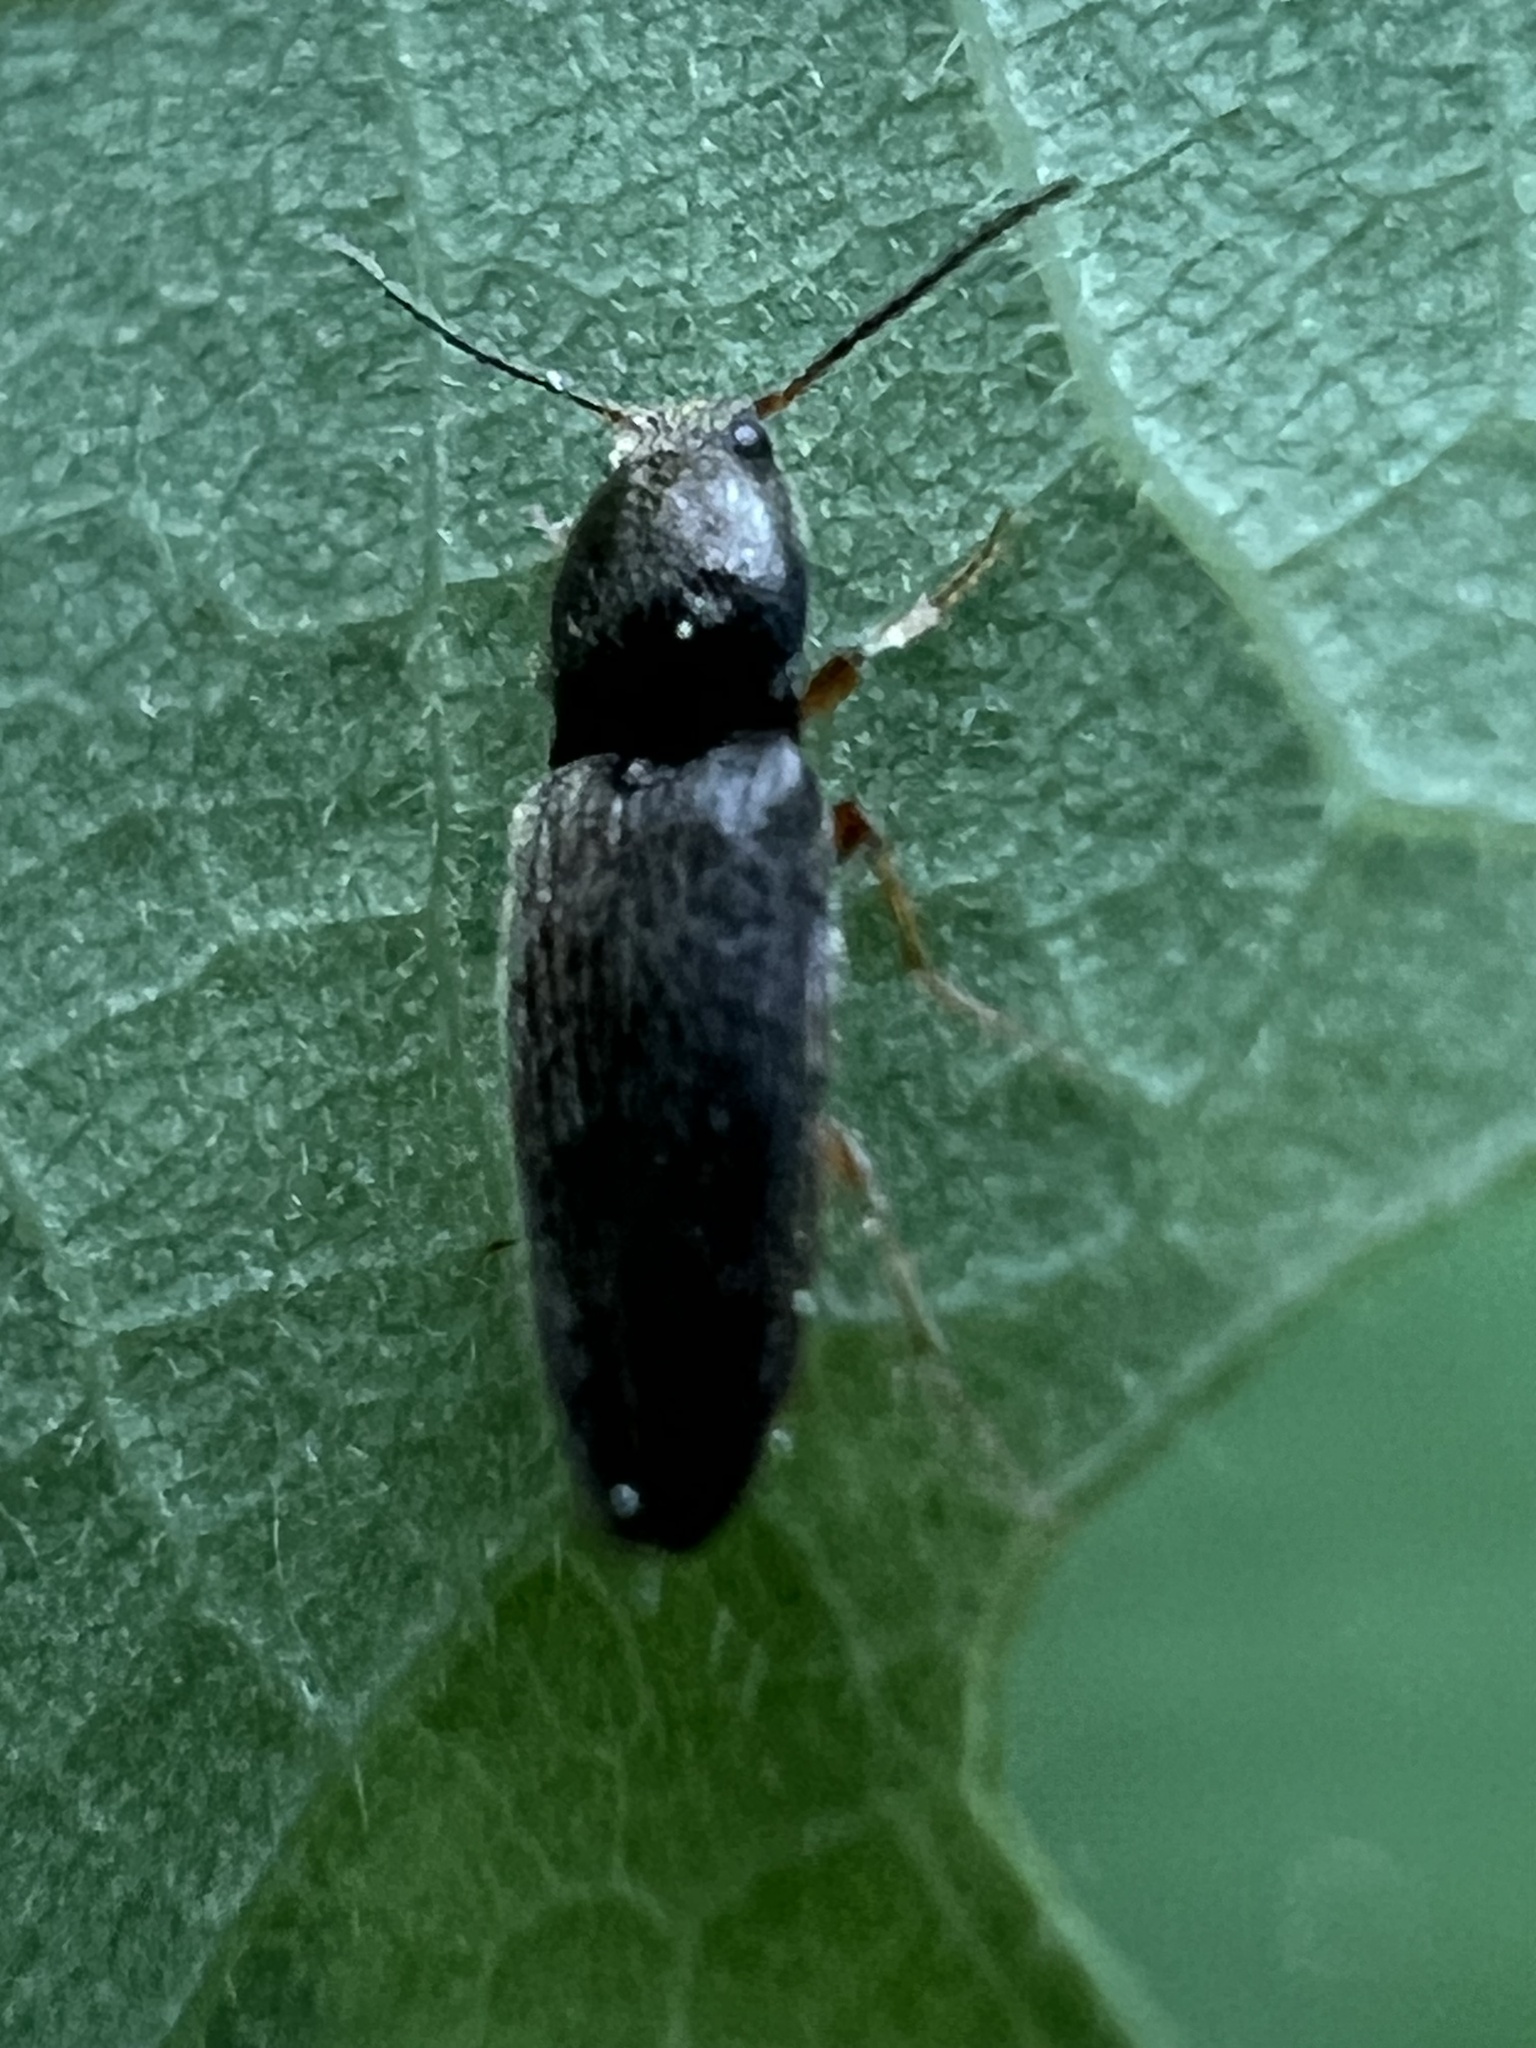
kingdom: Animalia
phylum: Arthropoda
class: Insecta
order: Coleoptera
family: Elateridae
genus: Limonius
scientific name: Limonius quercinus
